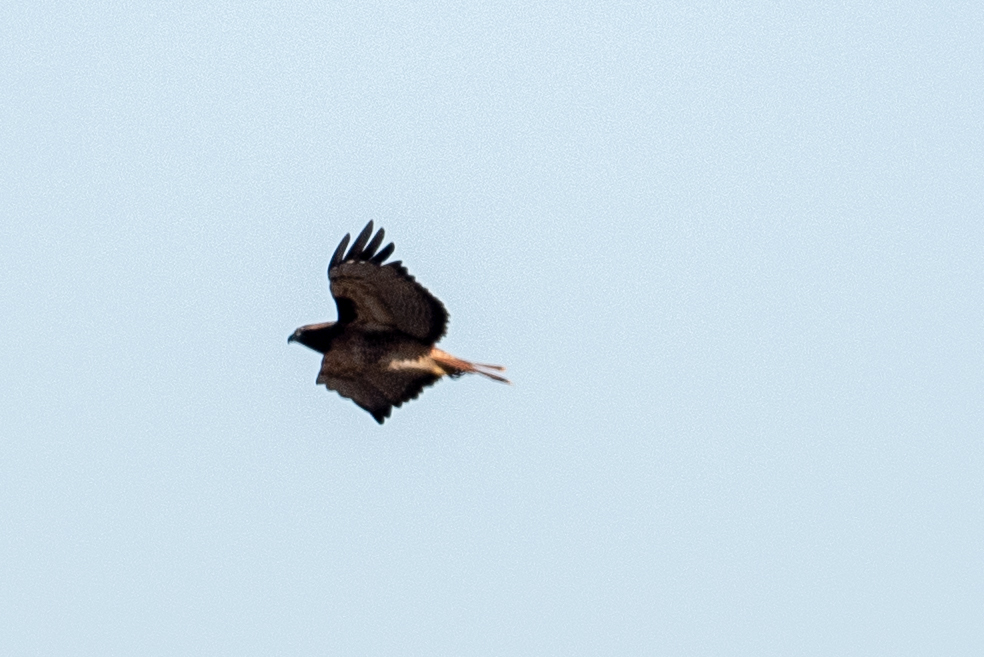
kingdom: Animalia
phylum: Chordata
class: Aves
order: Accipitriformes
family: Accipitridae
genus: Buteo
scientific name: Buteo jamaicensis
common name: Red-tailed hawk
